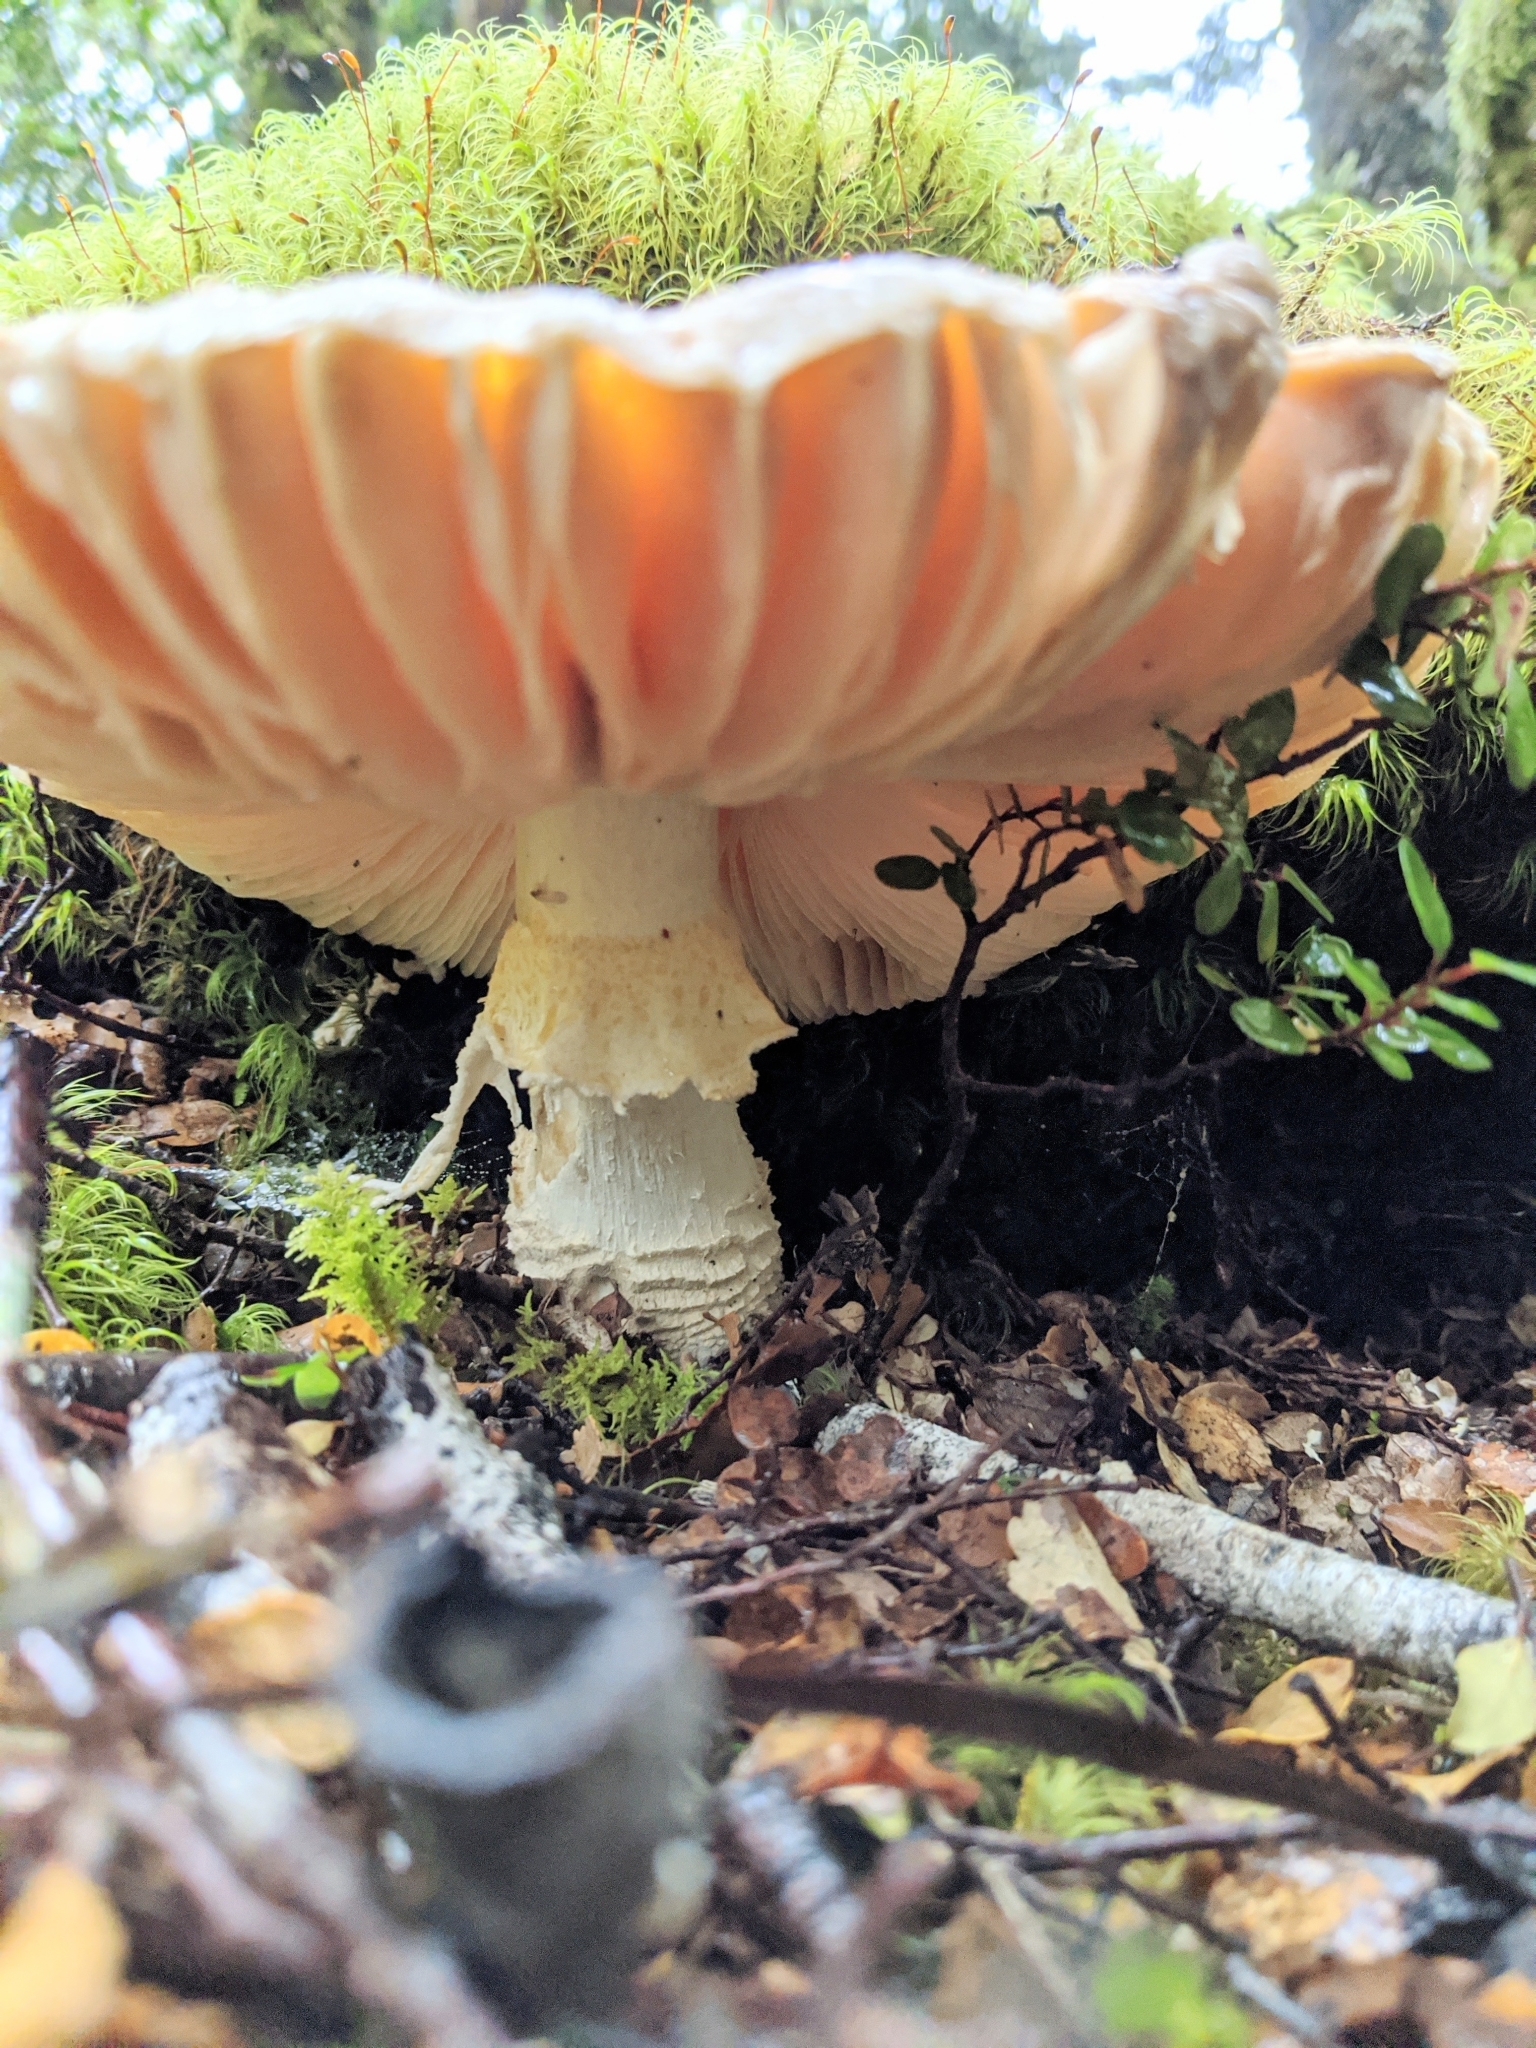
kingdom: Fungi
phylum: Basidiomycota
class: Agaricomycetes
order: Agaricales
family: Amanitaceae
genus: Amanita
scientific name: Amanita muscaria
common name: Fly agaric
